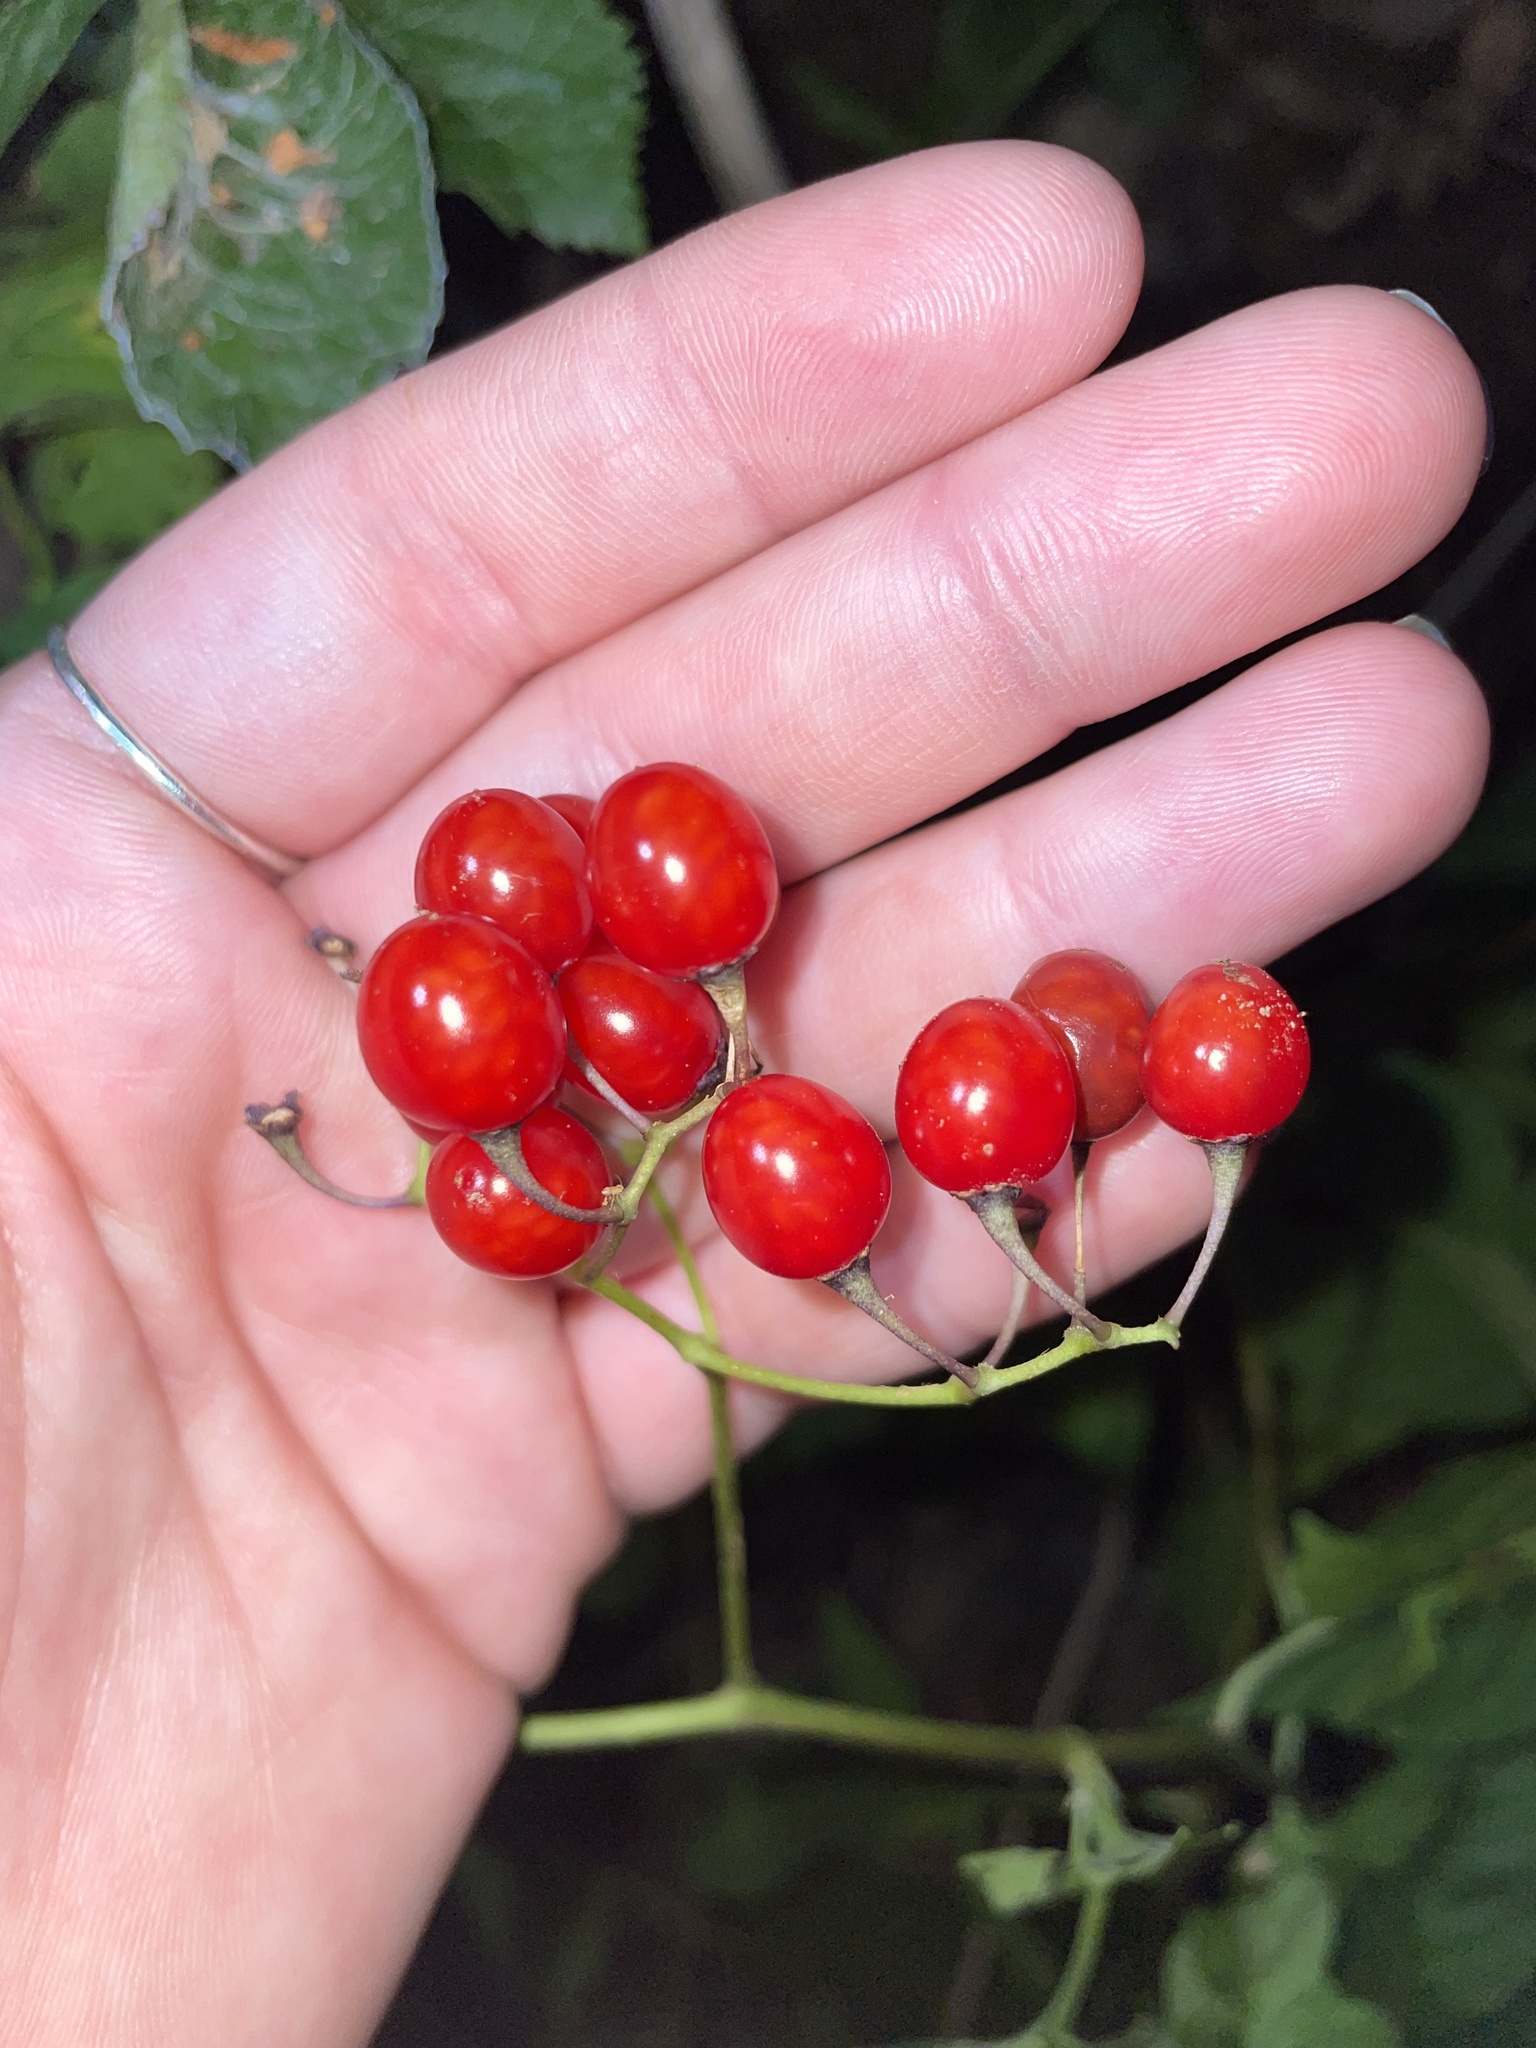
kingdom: Plantae
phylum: Tracheophyta
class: Magnoliopsida
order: Solanales
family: Solanaceae
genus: Solanum
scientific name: Solanum dulcamara
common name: Climbing nightshade
